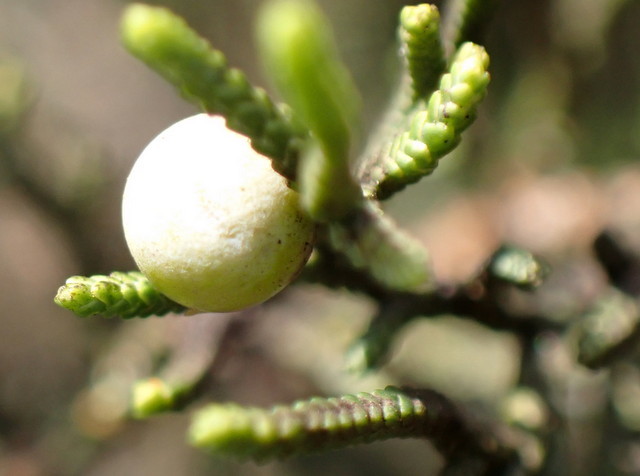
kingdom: Plantae
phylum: Tracheophyta
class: Pinopsida
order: Pinales
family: Cupressaceae
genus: Juniperus
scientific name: Juniperus virginiana
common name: Red juniper
